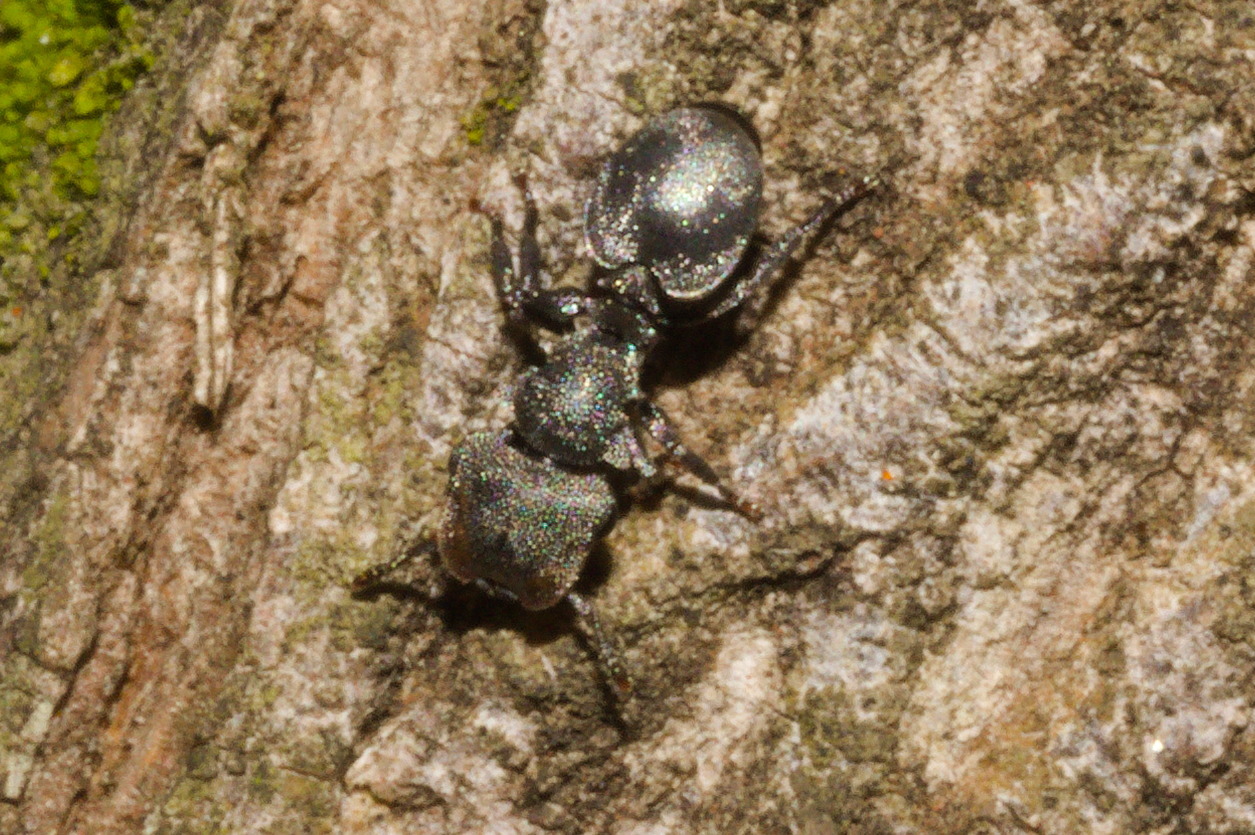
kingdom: Animalia
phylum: Arthropoda
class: Insecta
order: Hymenoptera
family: Formicidae
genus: Cephalotes
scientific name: Cephalotes borgmeieri
